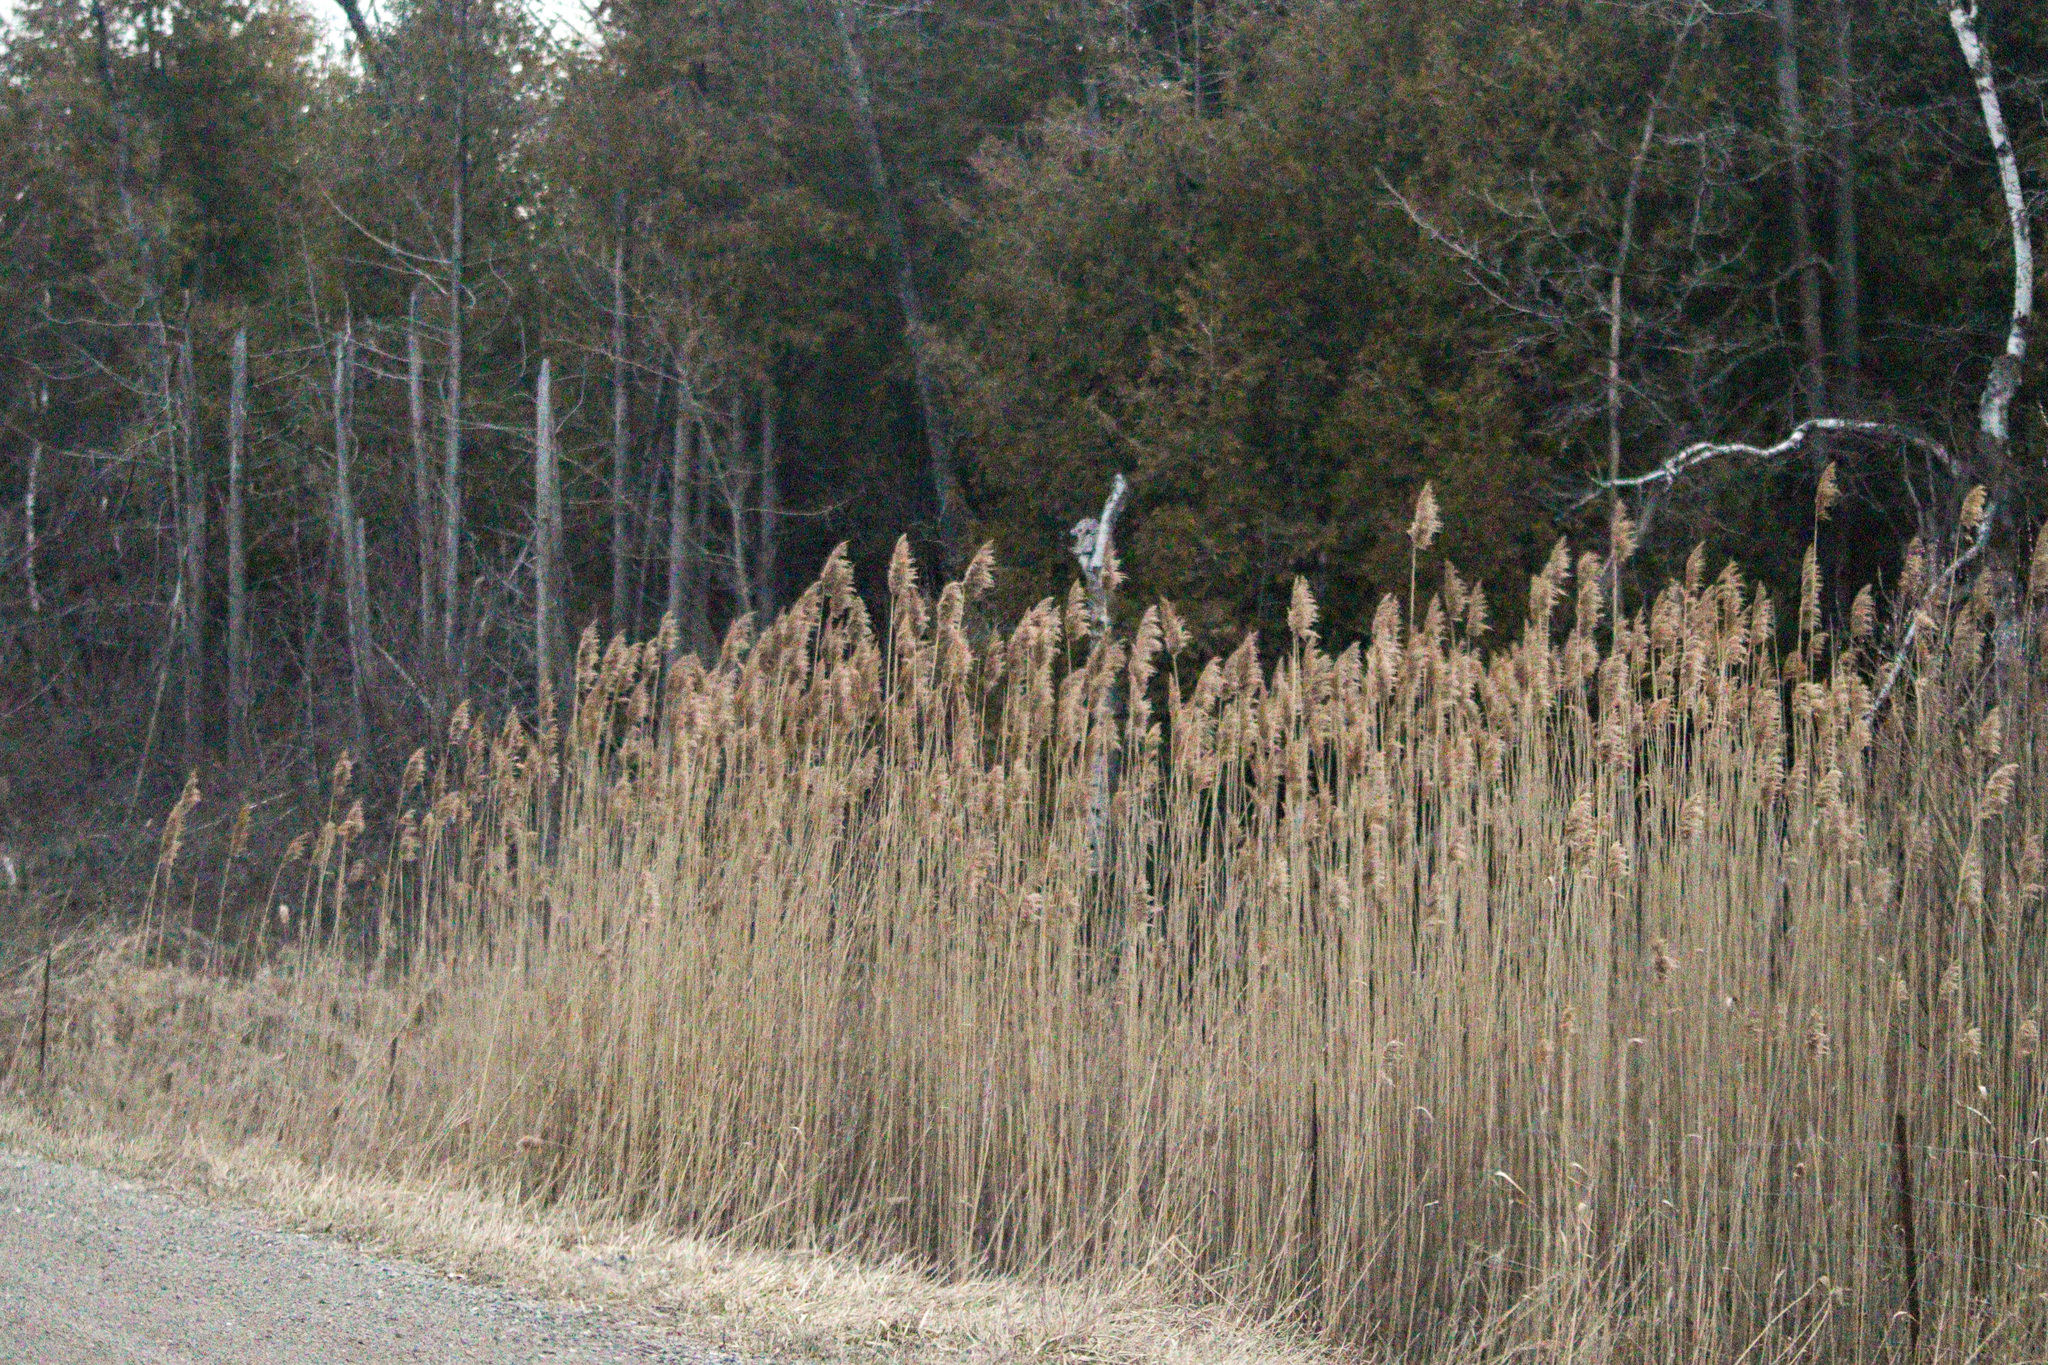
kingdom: Plantae
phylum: Tracheophyta
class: Liliopsida
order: Poales
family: Poaceae
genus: Phragmites
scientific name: Phragmites australis
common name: Common reed
